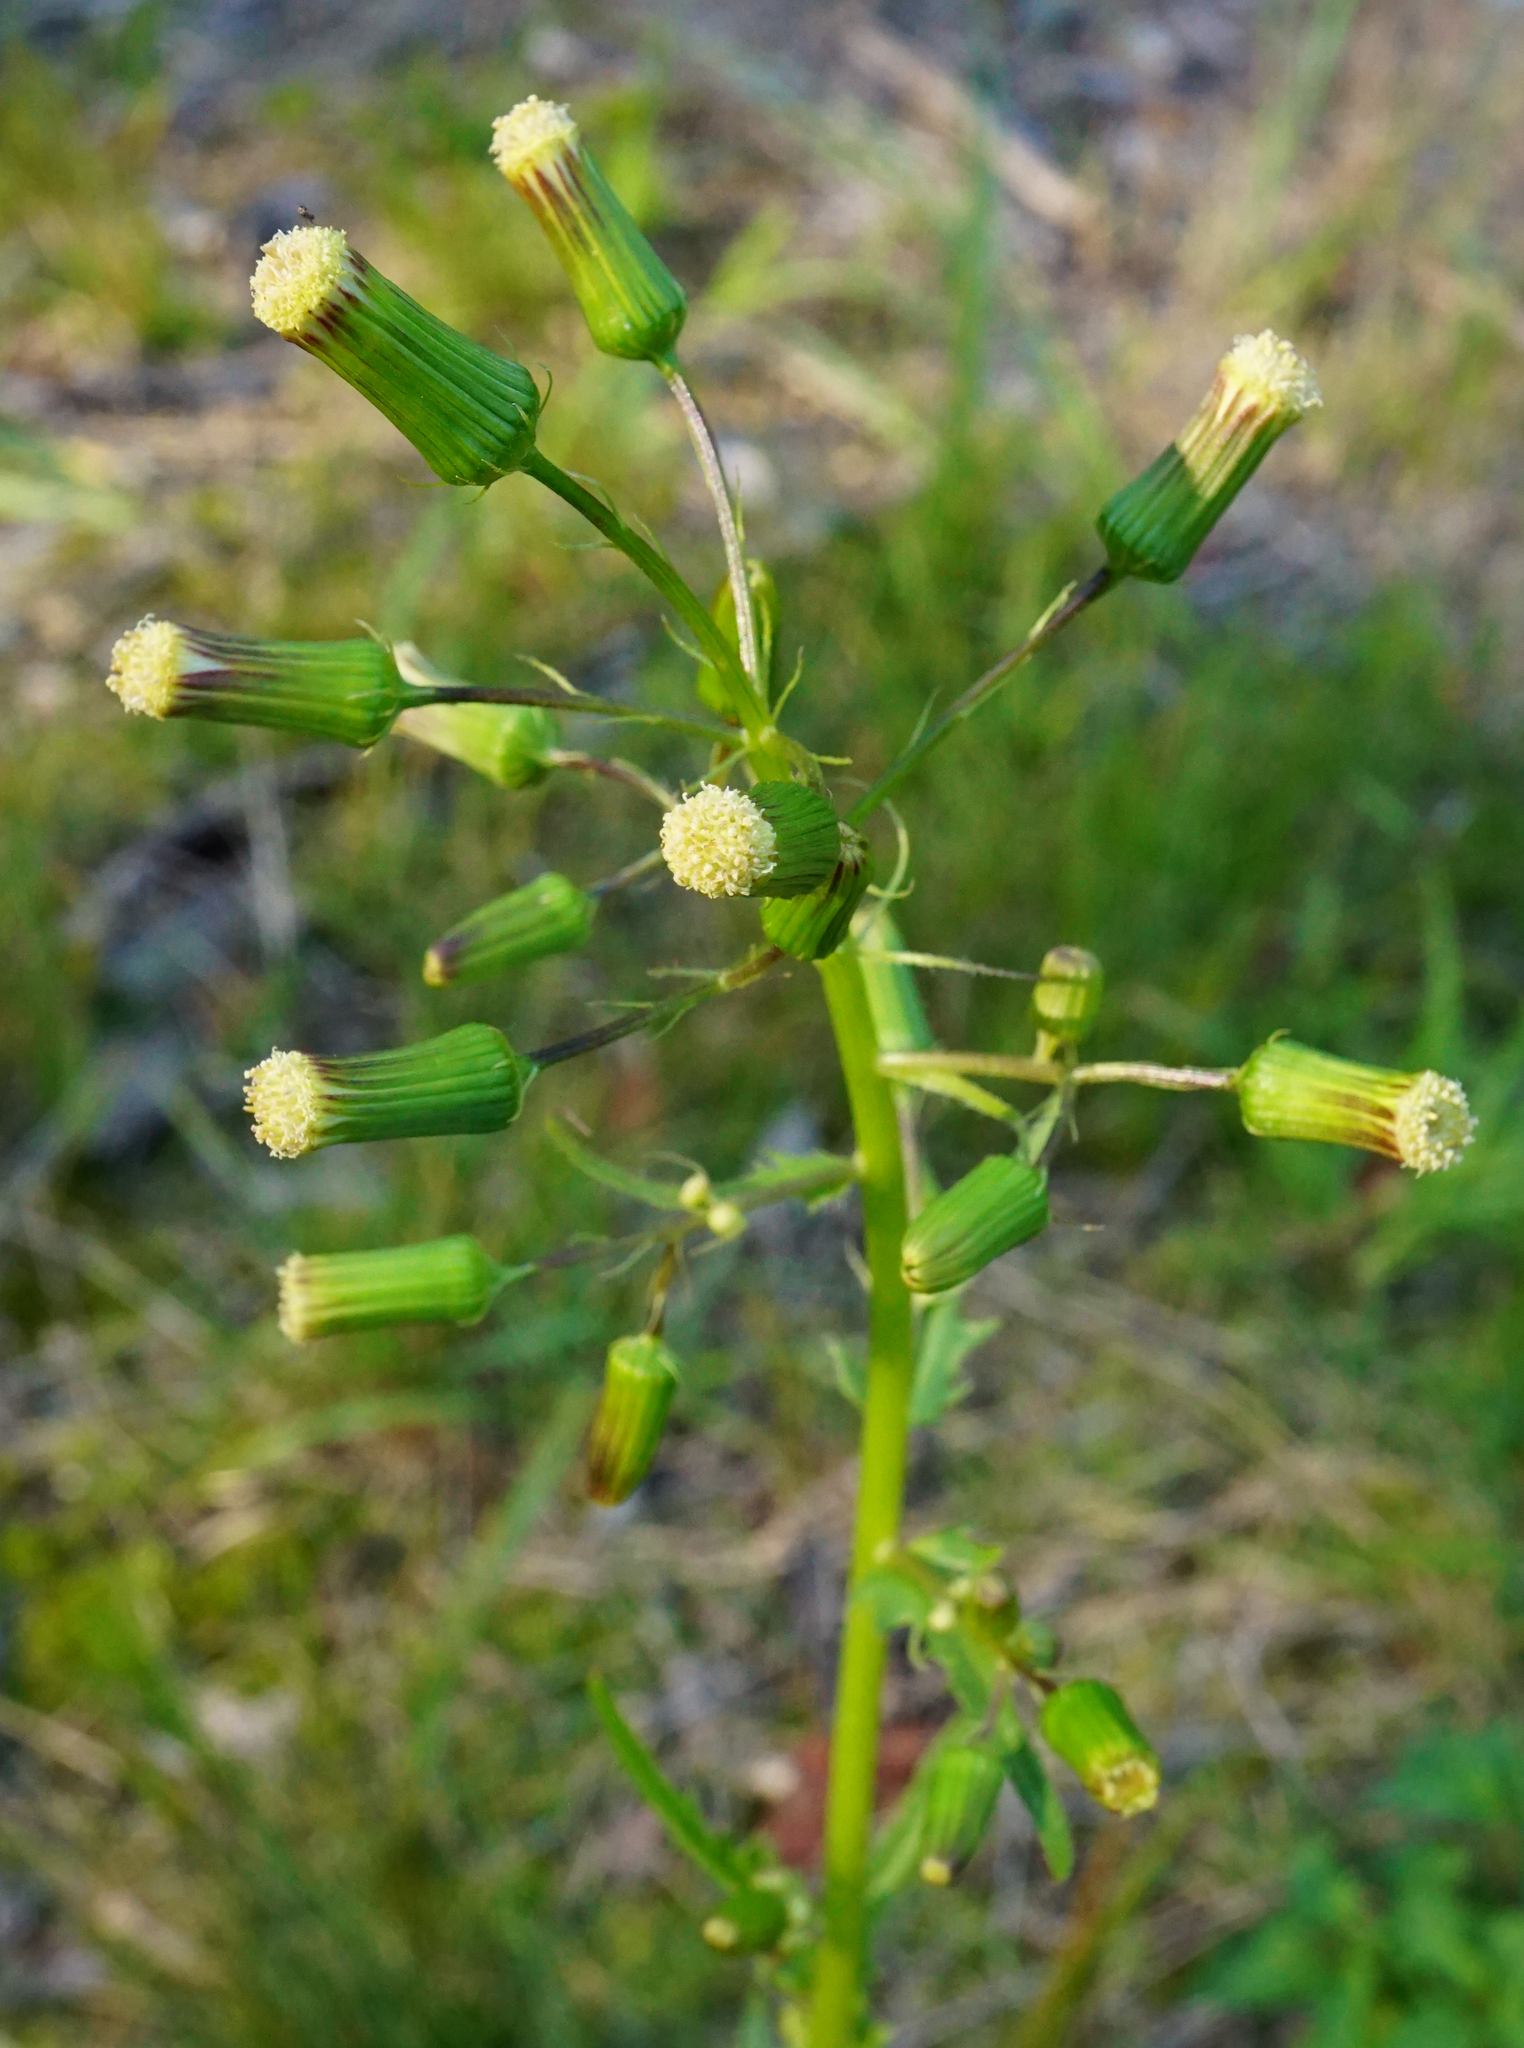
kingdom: Plantae
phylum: Tracheophyta
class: Magnoliopsida
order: Asterales
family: Asteraceae
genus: Erechtites
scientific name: Erechtites hieraciifolius
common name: American burnweed
